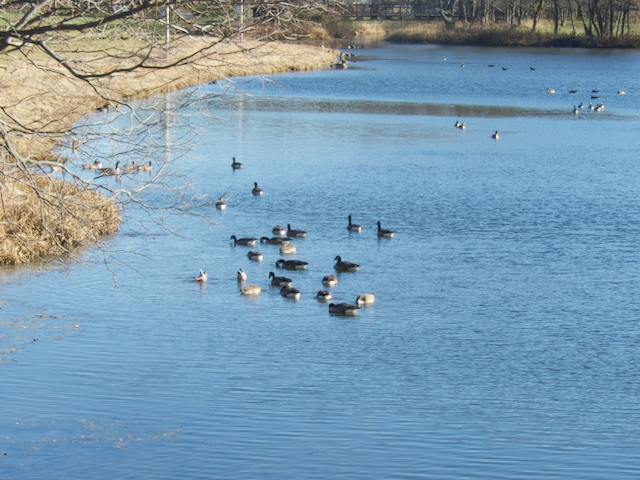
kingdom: Animalia
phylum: Chordata
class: Aves
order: Anseriformes
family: Anatidae
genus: Branta
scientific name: Branta canadensis
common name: Canada goose
